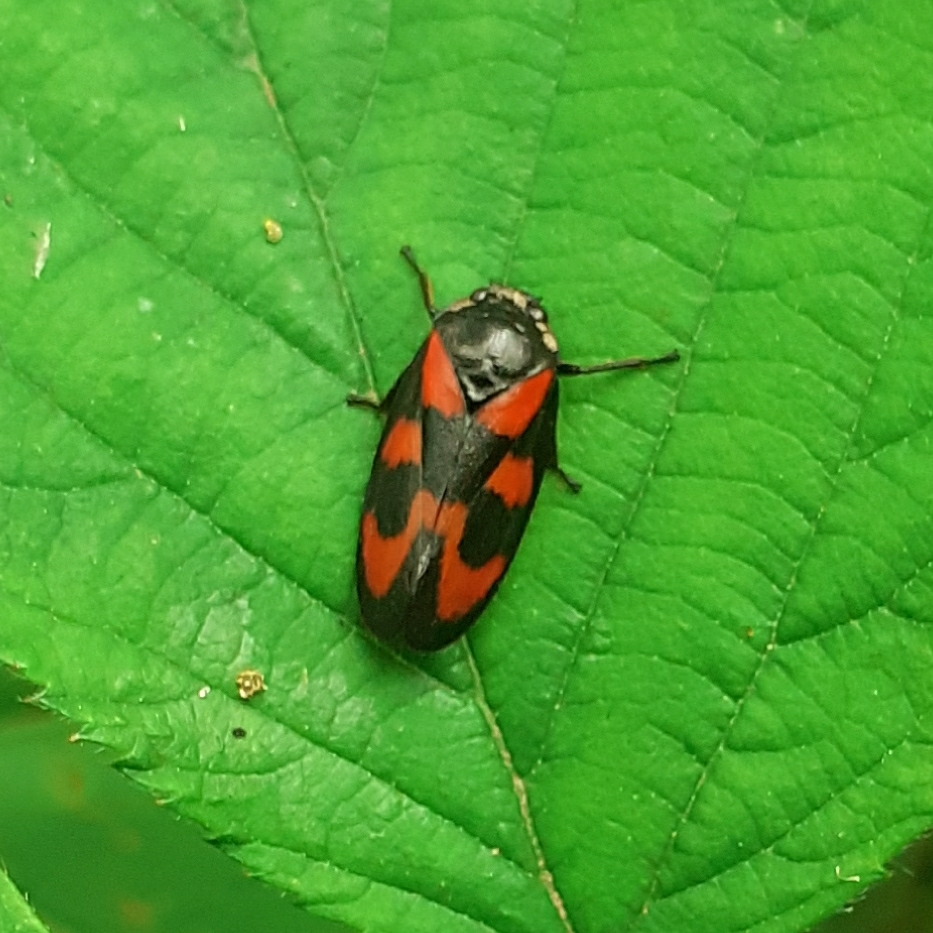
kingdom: Animalia
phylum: Arthropoda
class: Insecta
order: Hemiptera
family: Cercopidae
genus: Cercopis
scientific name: Cercopis vulnerata
